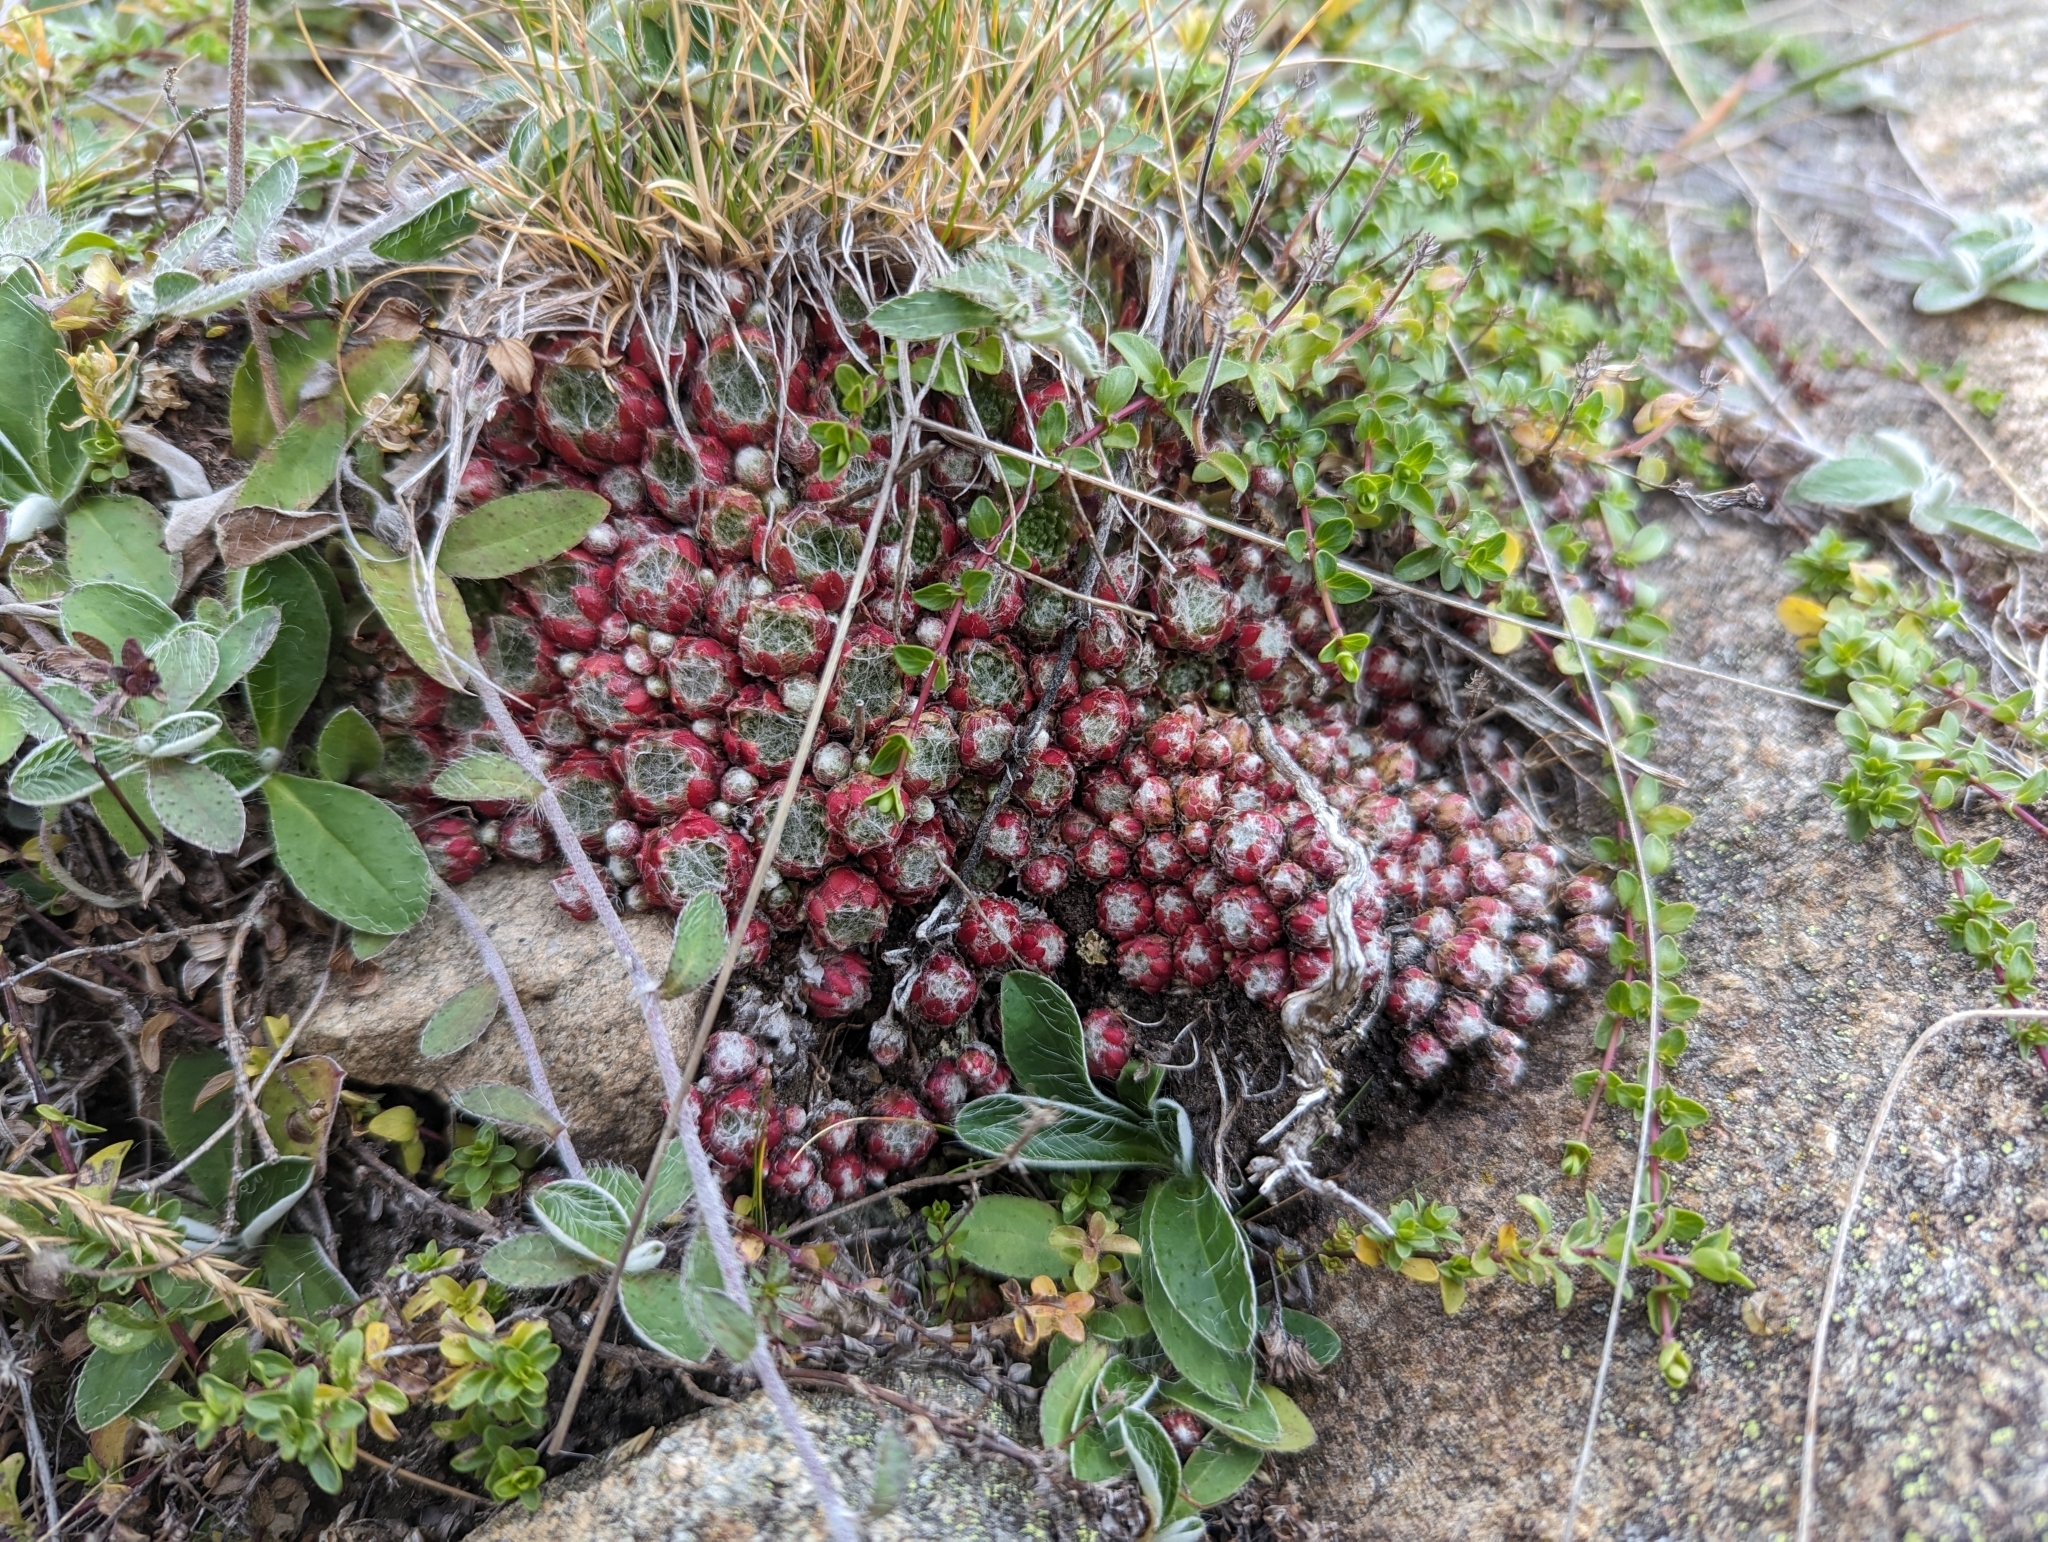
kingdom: Plantae
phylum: Tracheophyta
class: Magnoliopsida
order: Saxifragales
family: Crassulaceae
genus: Sempervivum
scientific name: Sempervivum arachnoideum
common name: Cobweb house-leek
